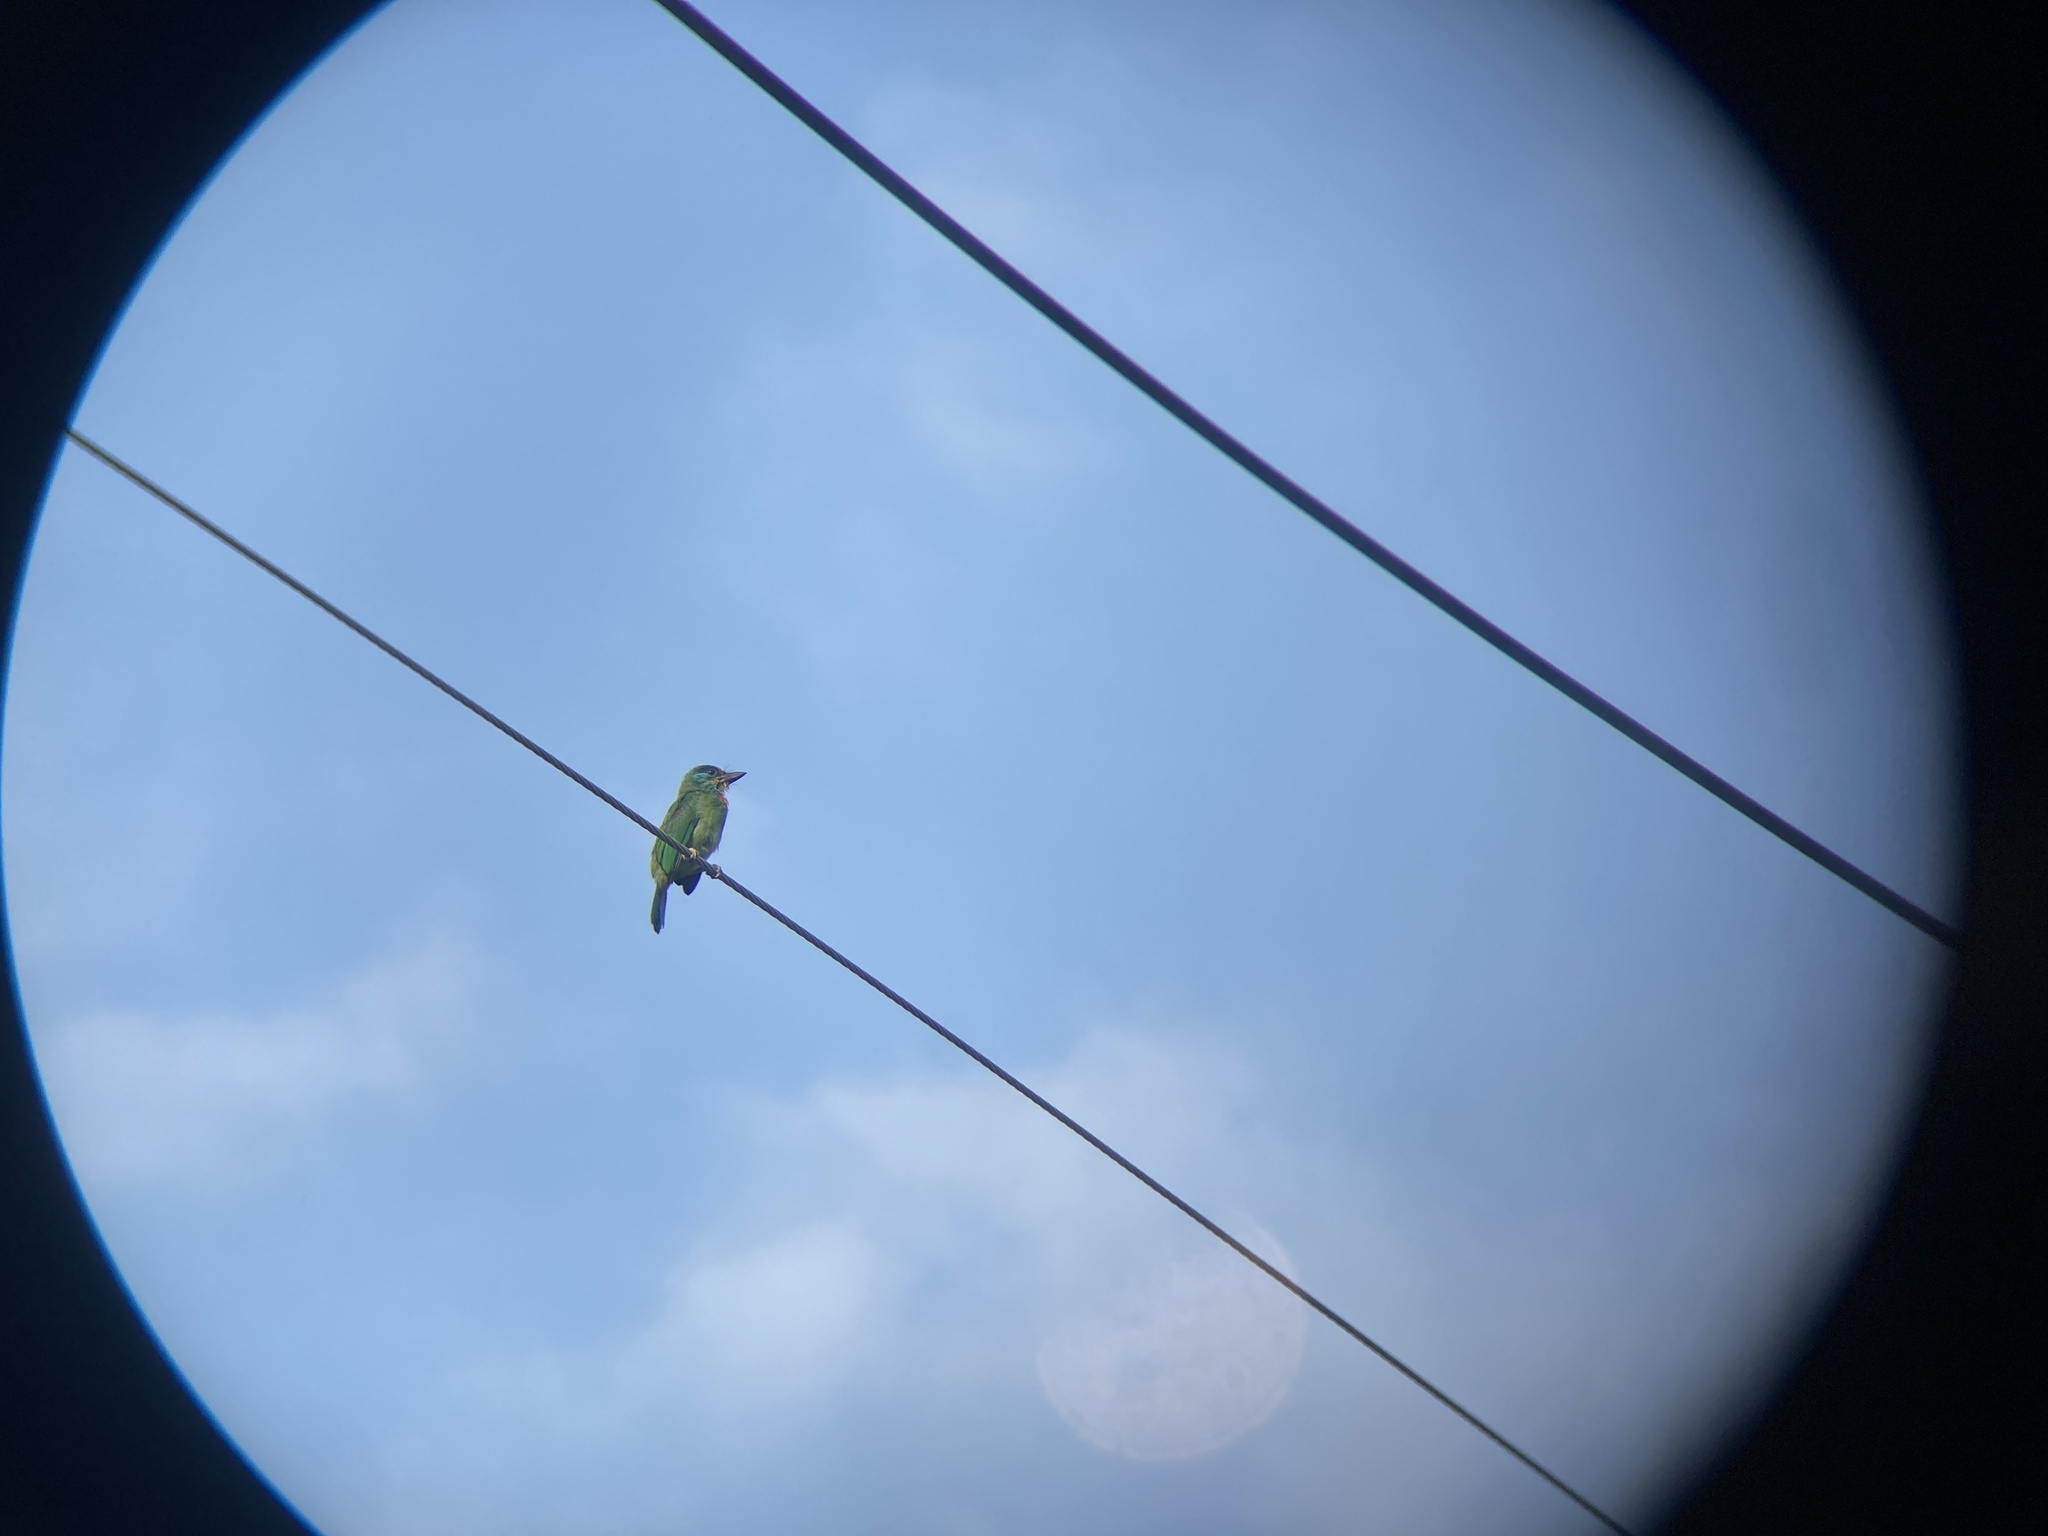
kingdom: Animalia
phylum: Chordata
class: Aves
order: Piciformes
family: Megalaimidae
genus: Psilopogon
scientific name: Psilopogon nuchalis
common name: Taiwan barbet
